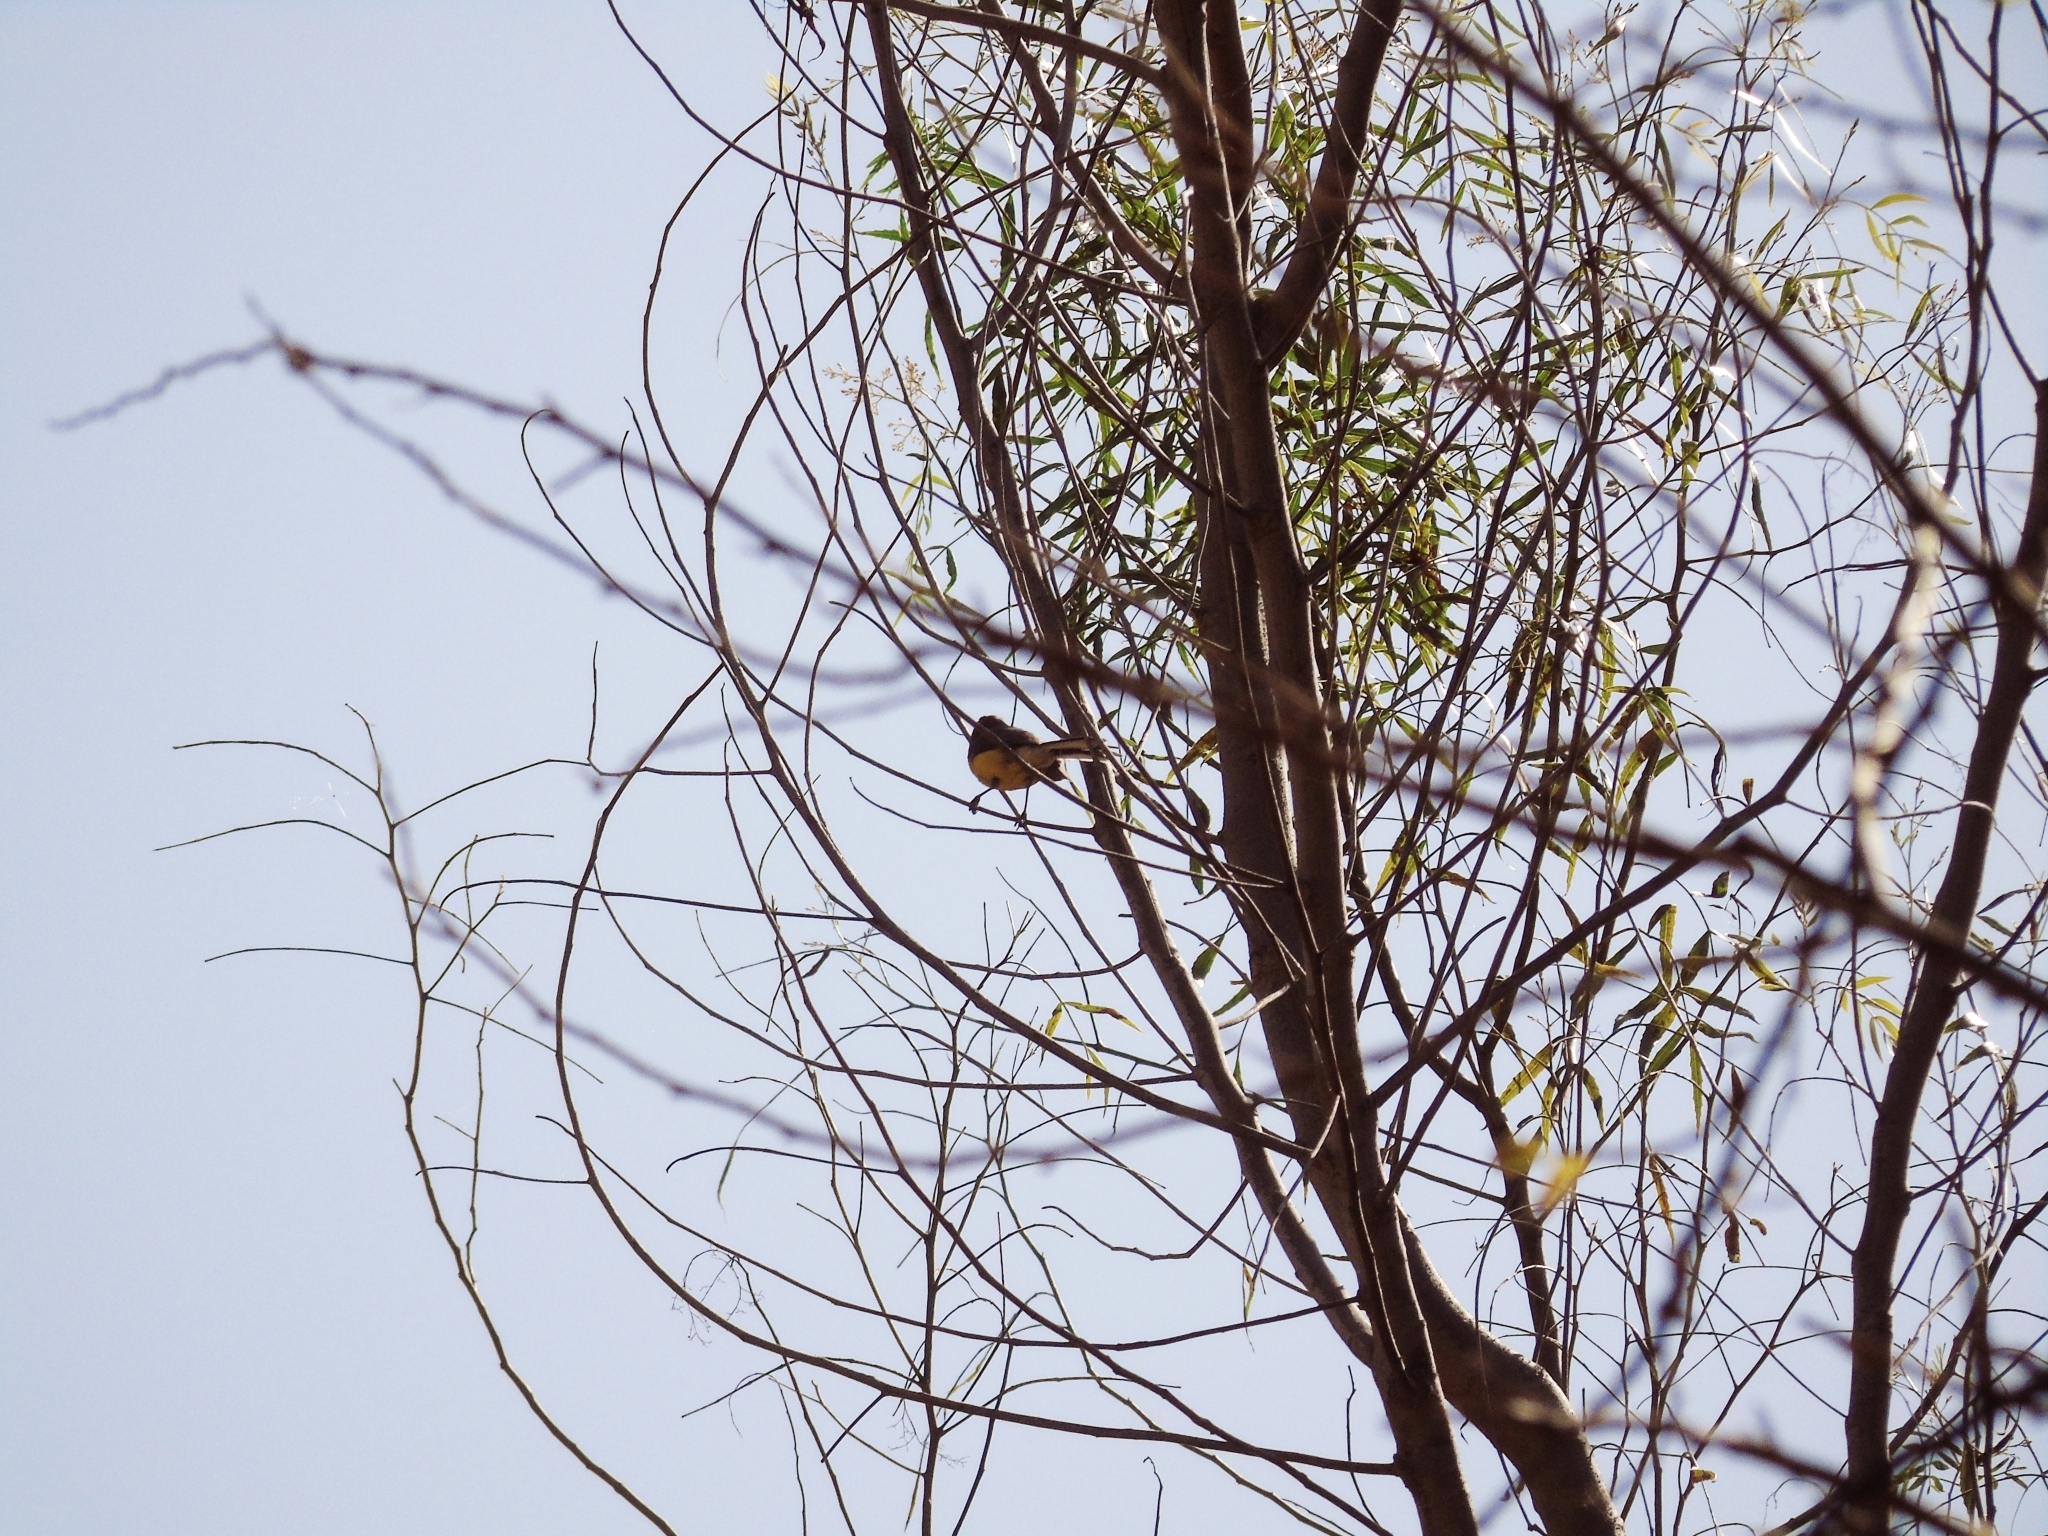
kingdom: Animalia
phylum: Chordata
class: Aves
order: Passeriformes
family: Parulidae
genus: Myioborus
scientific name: Myioborus brunniceps
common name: Brown-capped whitestart
